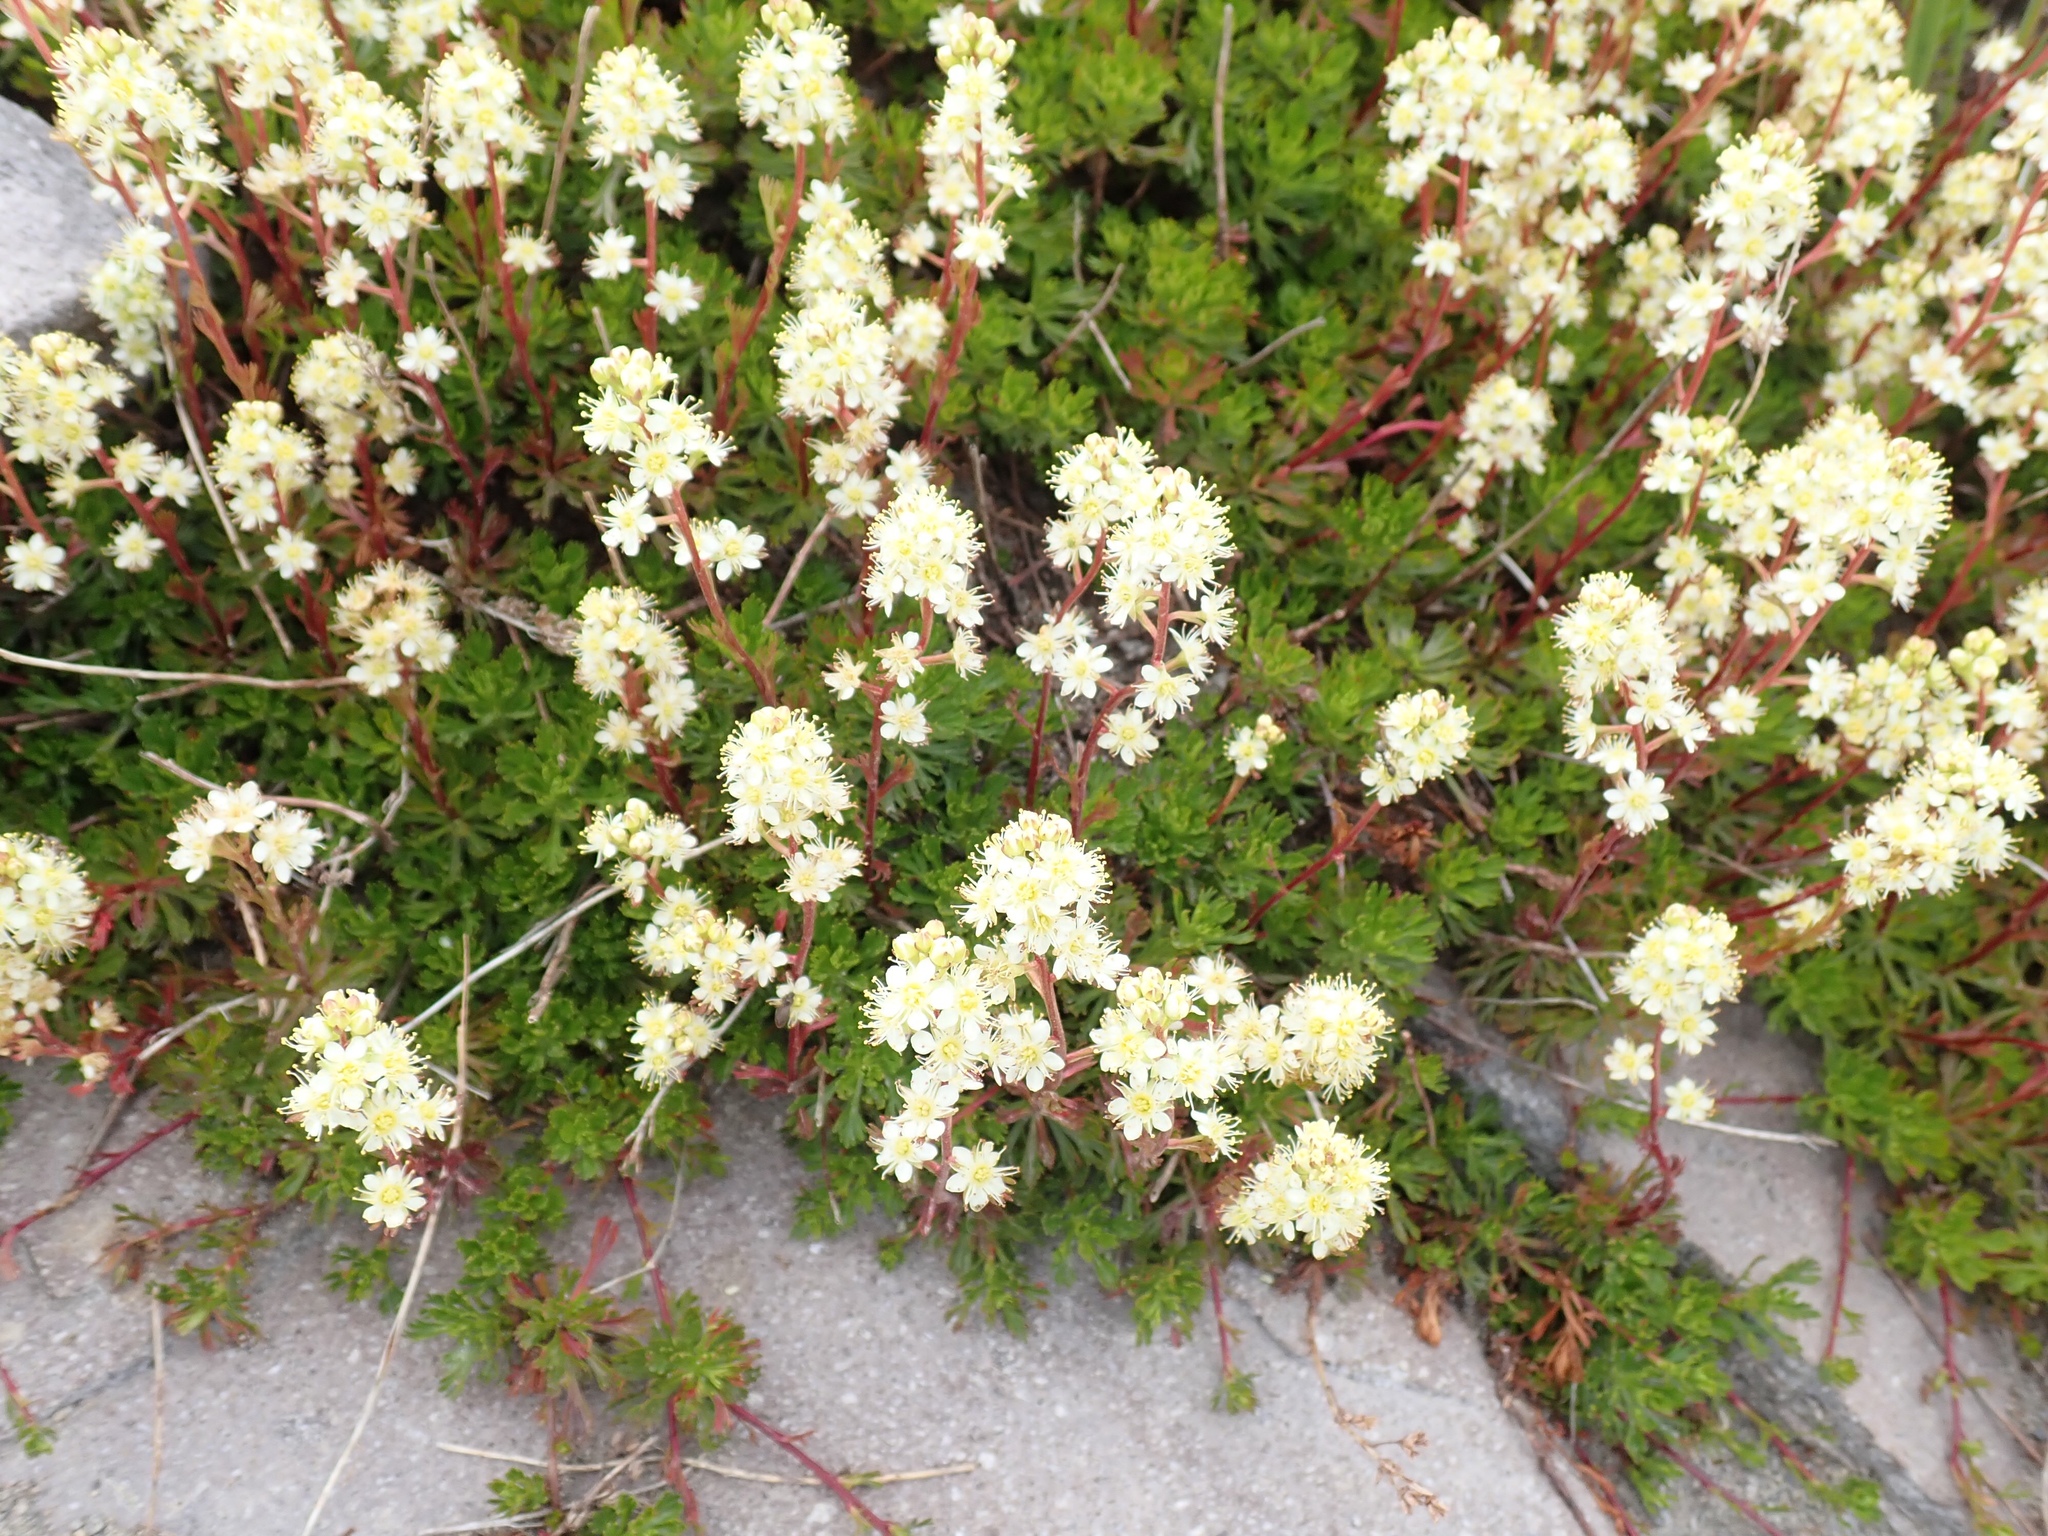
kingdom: Plantae
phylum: Tracheophyta
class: Magnoliopsida
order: Rosales
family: Rosaceae
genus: Luetkea
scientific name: Luetkea pectinata
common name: Partridgefoot
